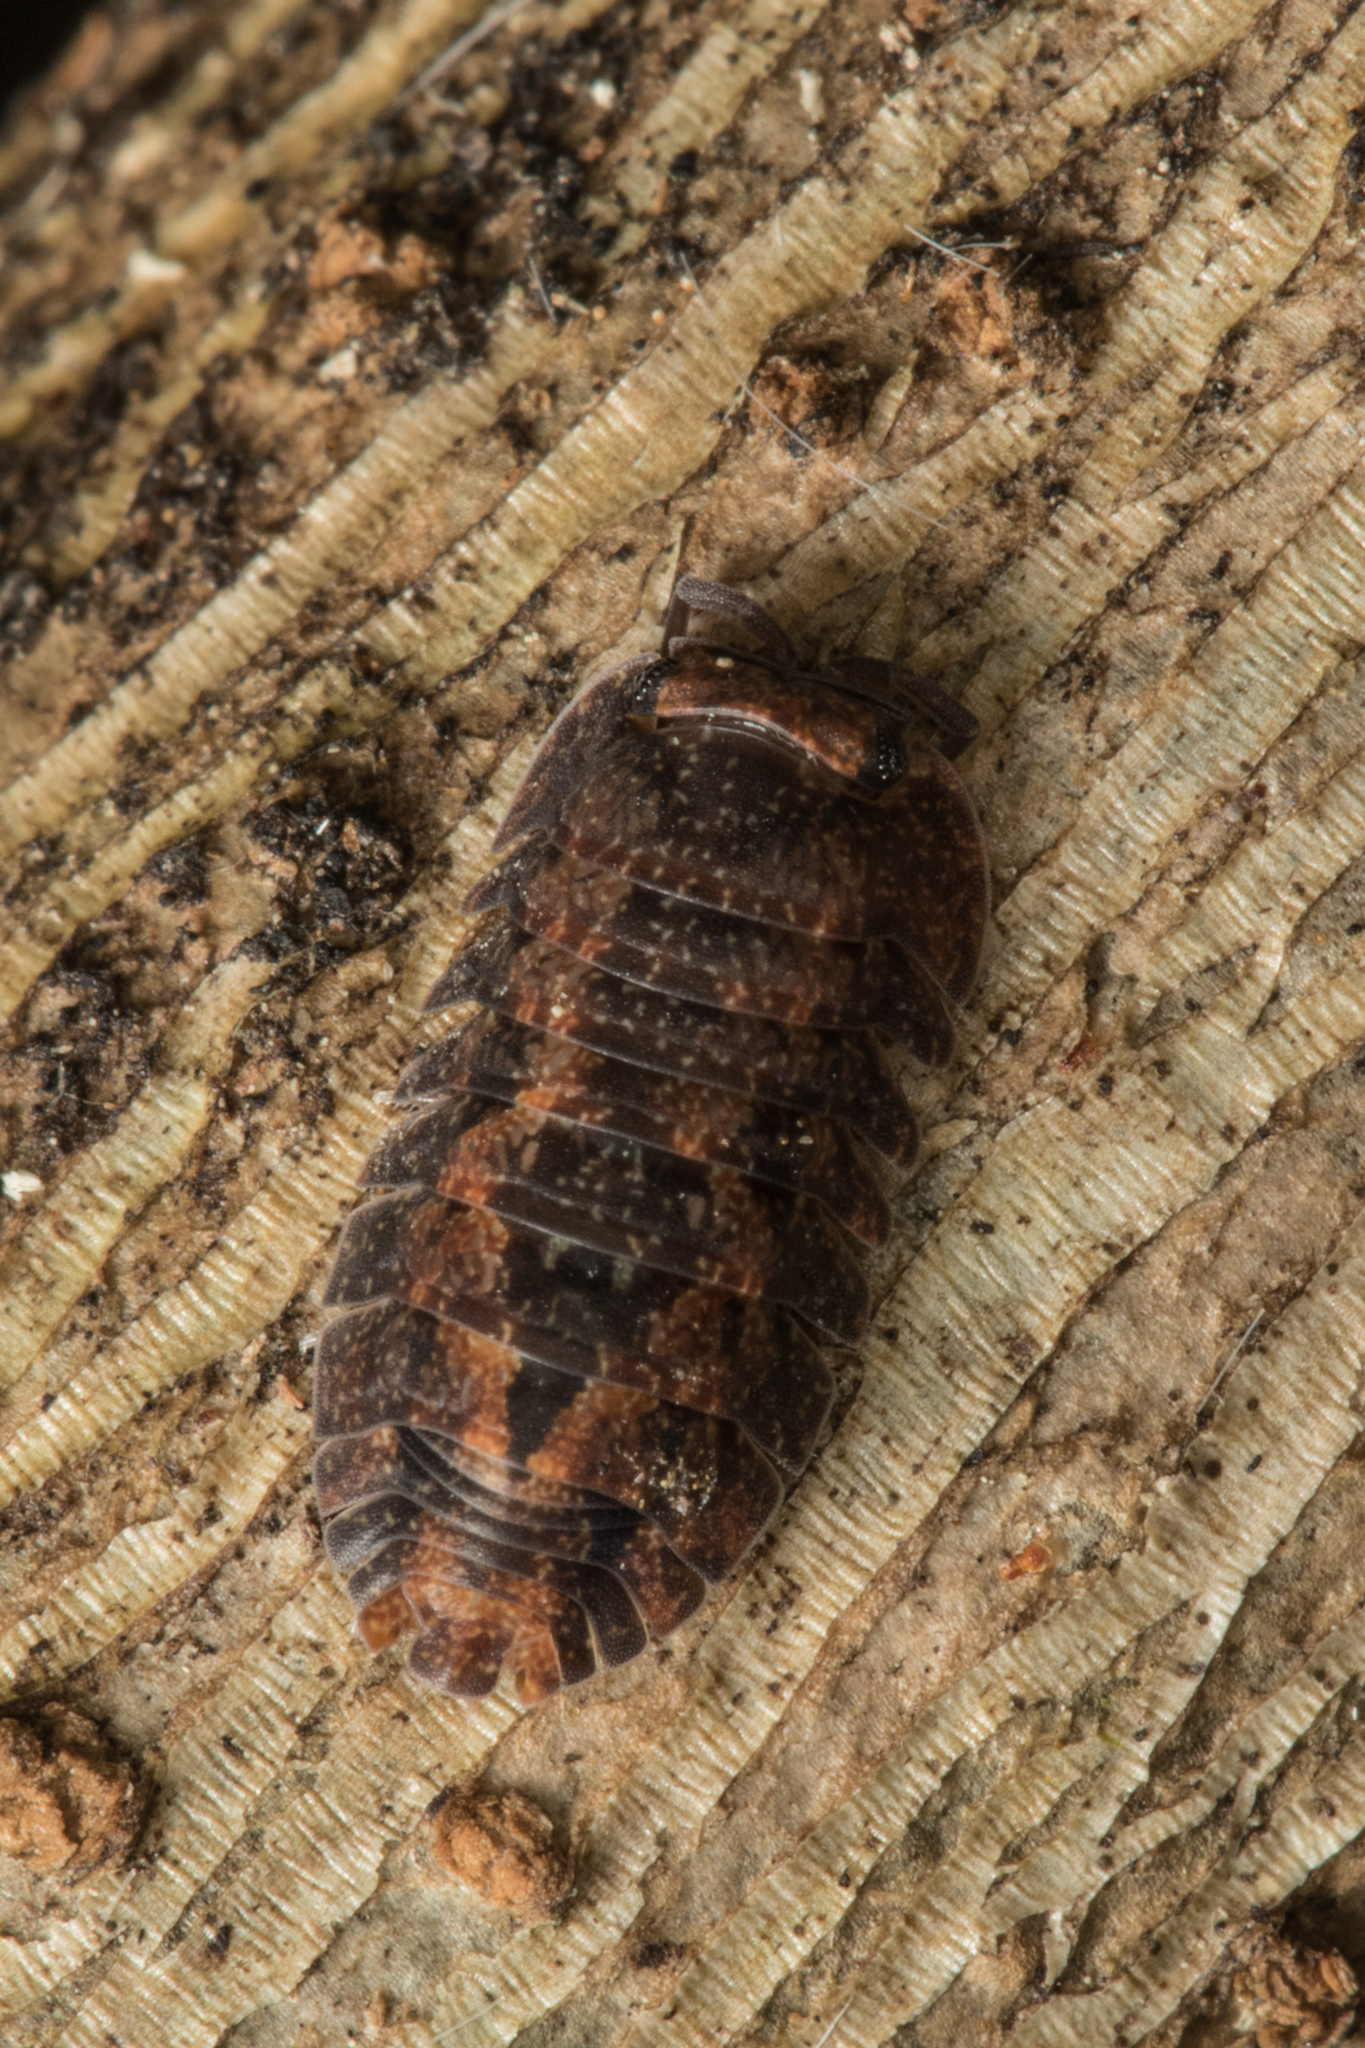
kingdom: Animalia
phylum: Arthropoda
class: Malacostraca
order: Isopoda
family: Armadillidae
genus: Cubaris
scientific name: Cubaris tarangensis
